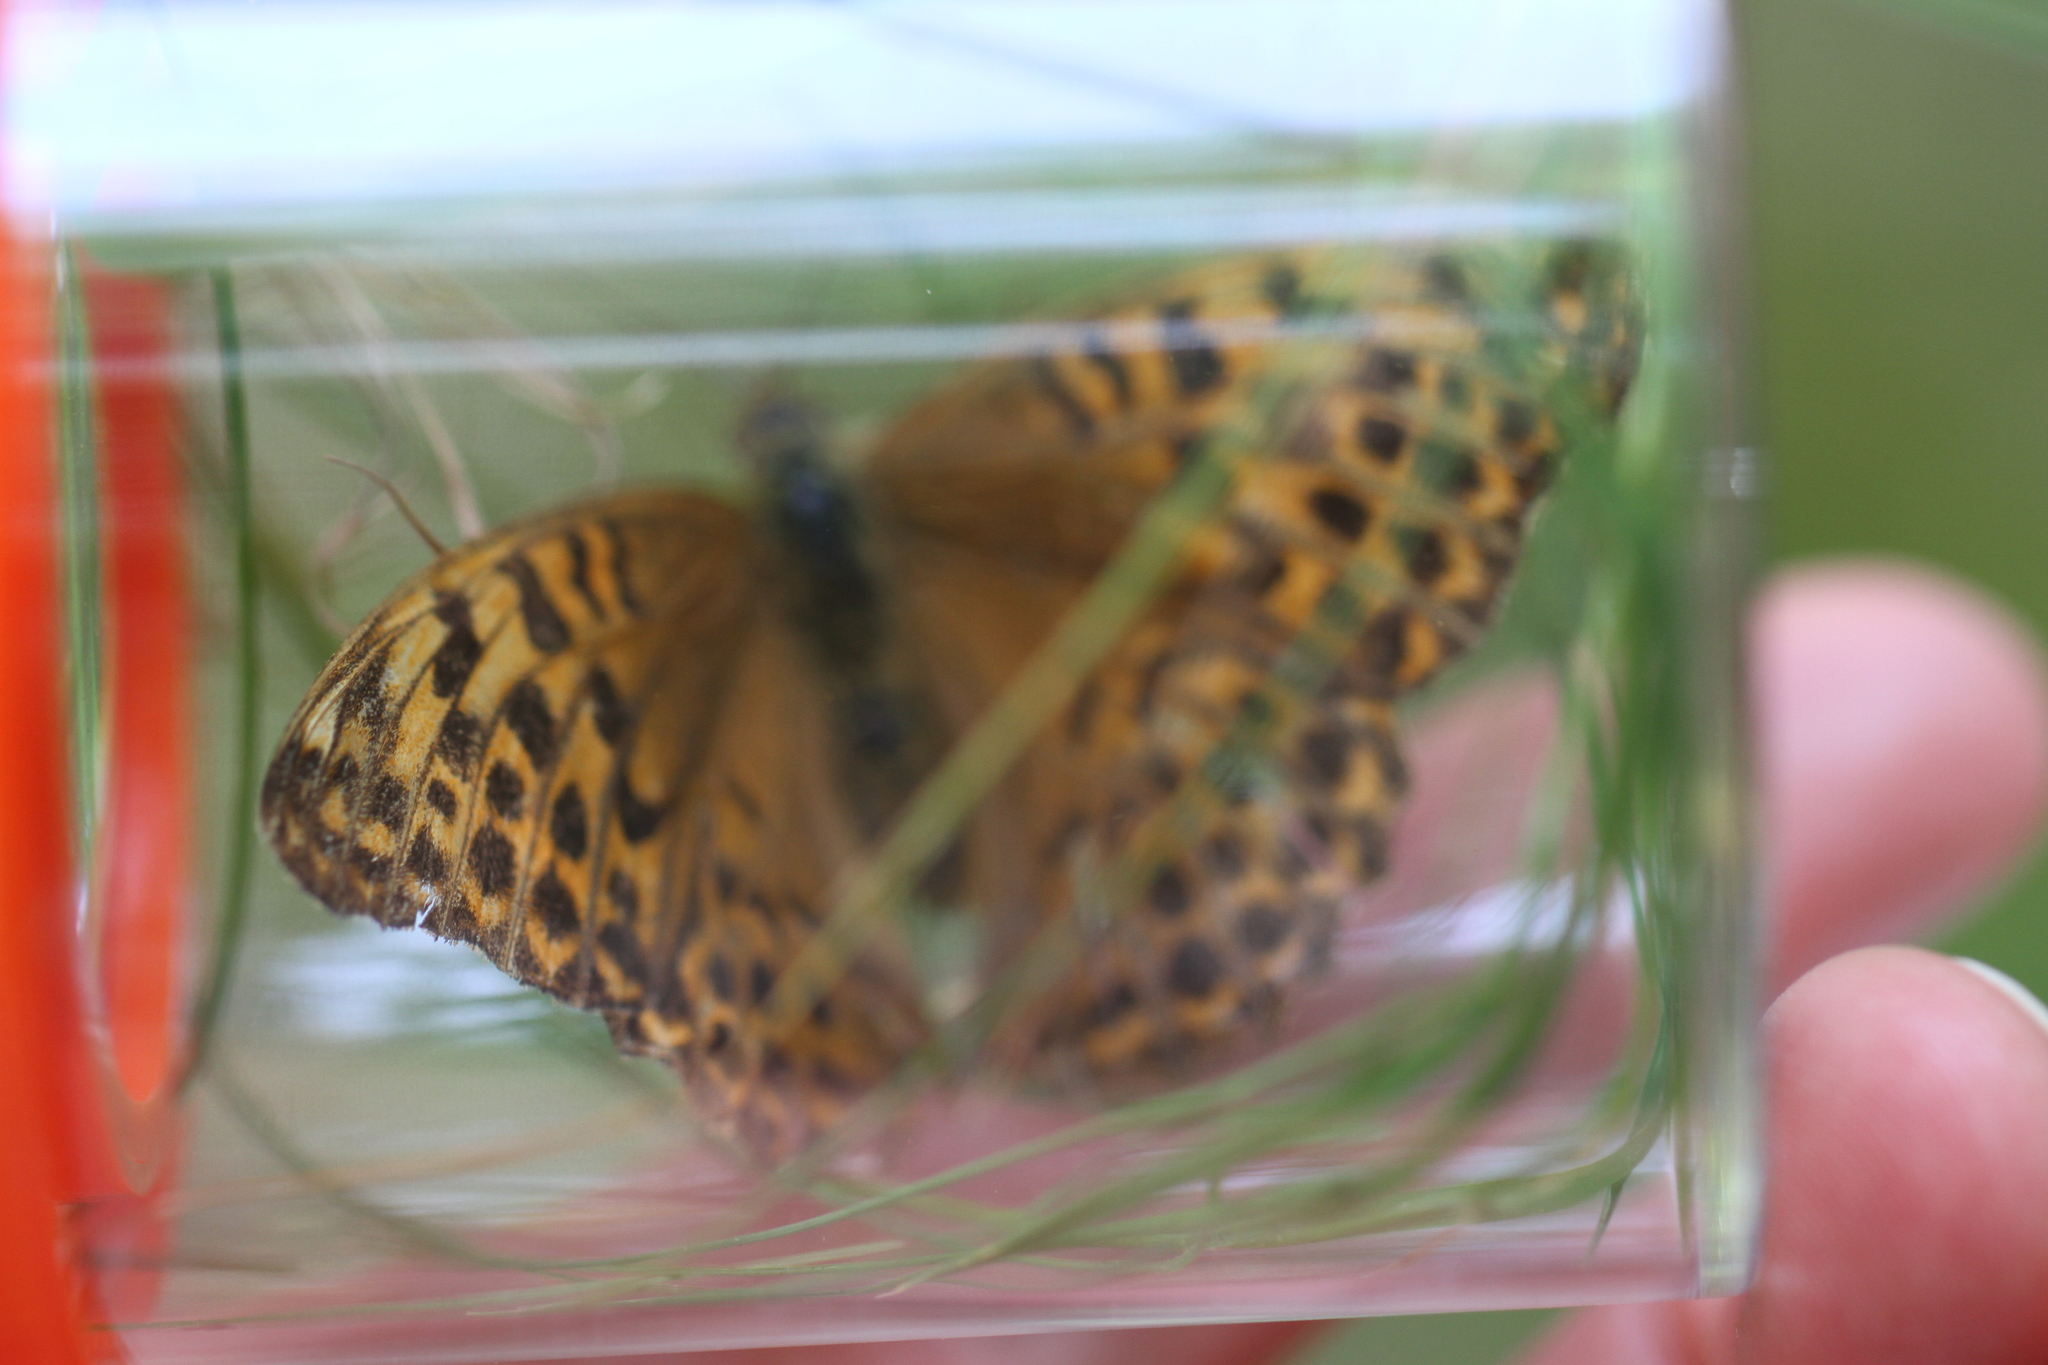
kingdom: Animalia
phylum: Arthropoda
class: Insecta
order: Lepidoptera
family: Nymphalidae
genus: Argynnis
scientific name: Argynnis paphia
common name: Silver-washed fritillary
